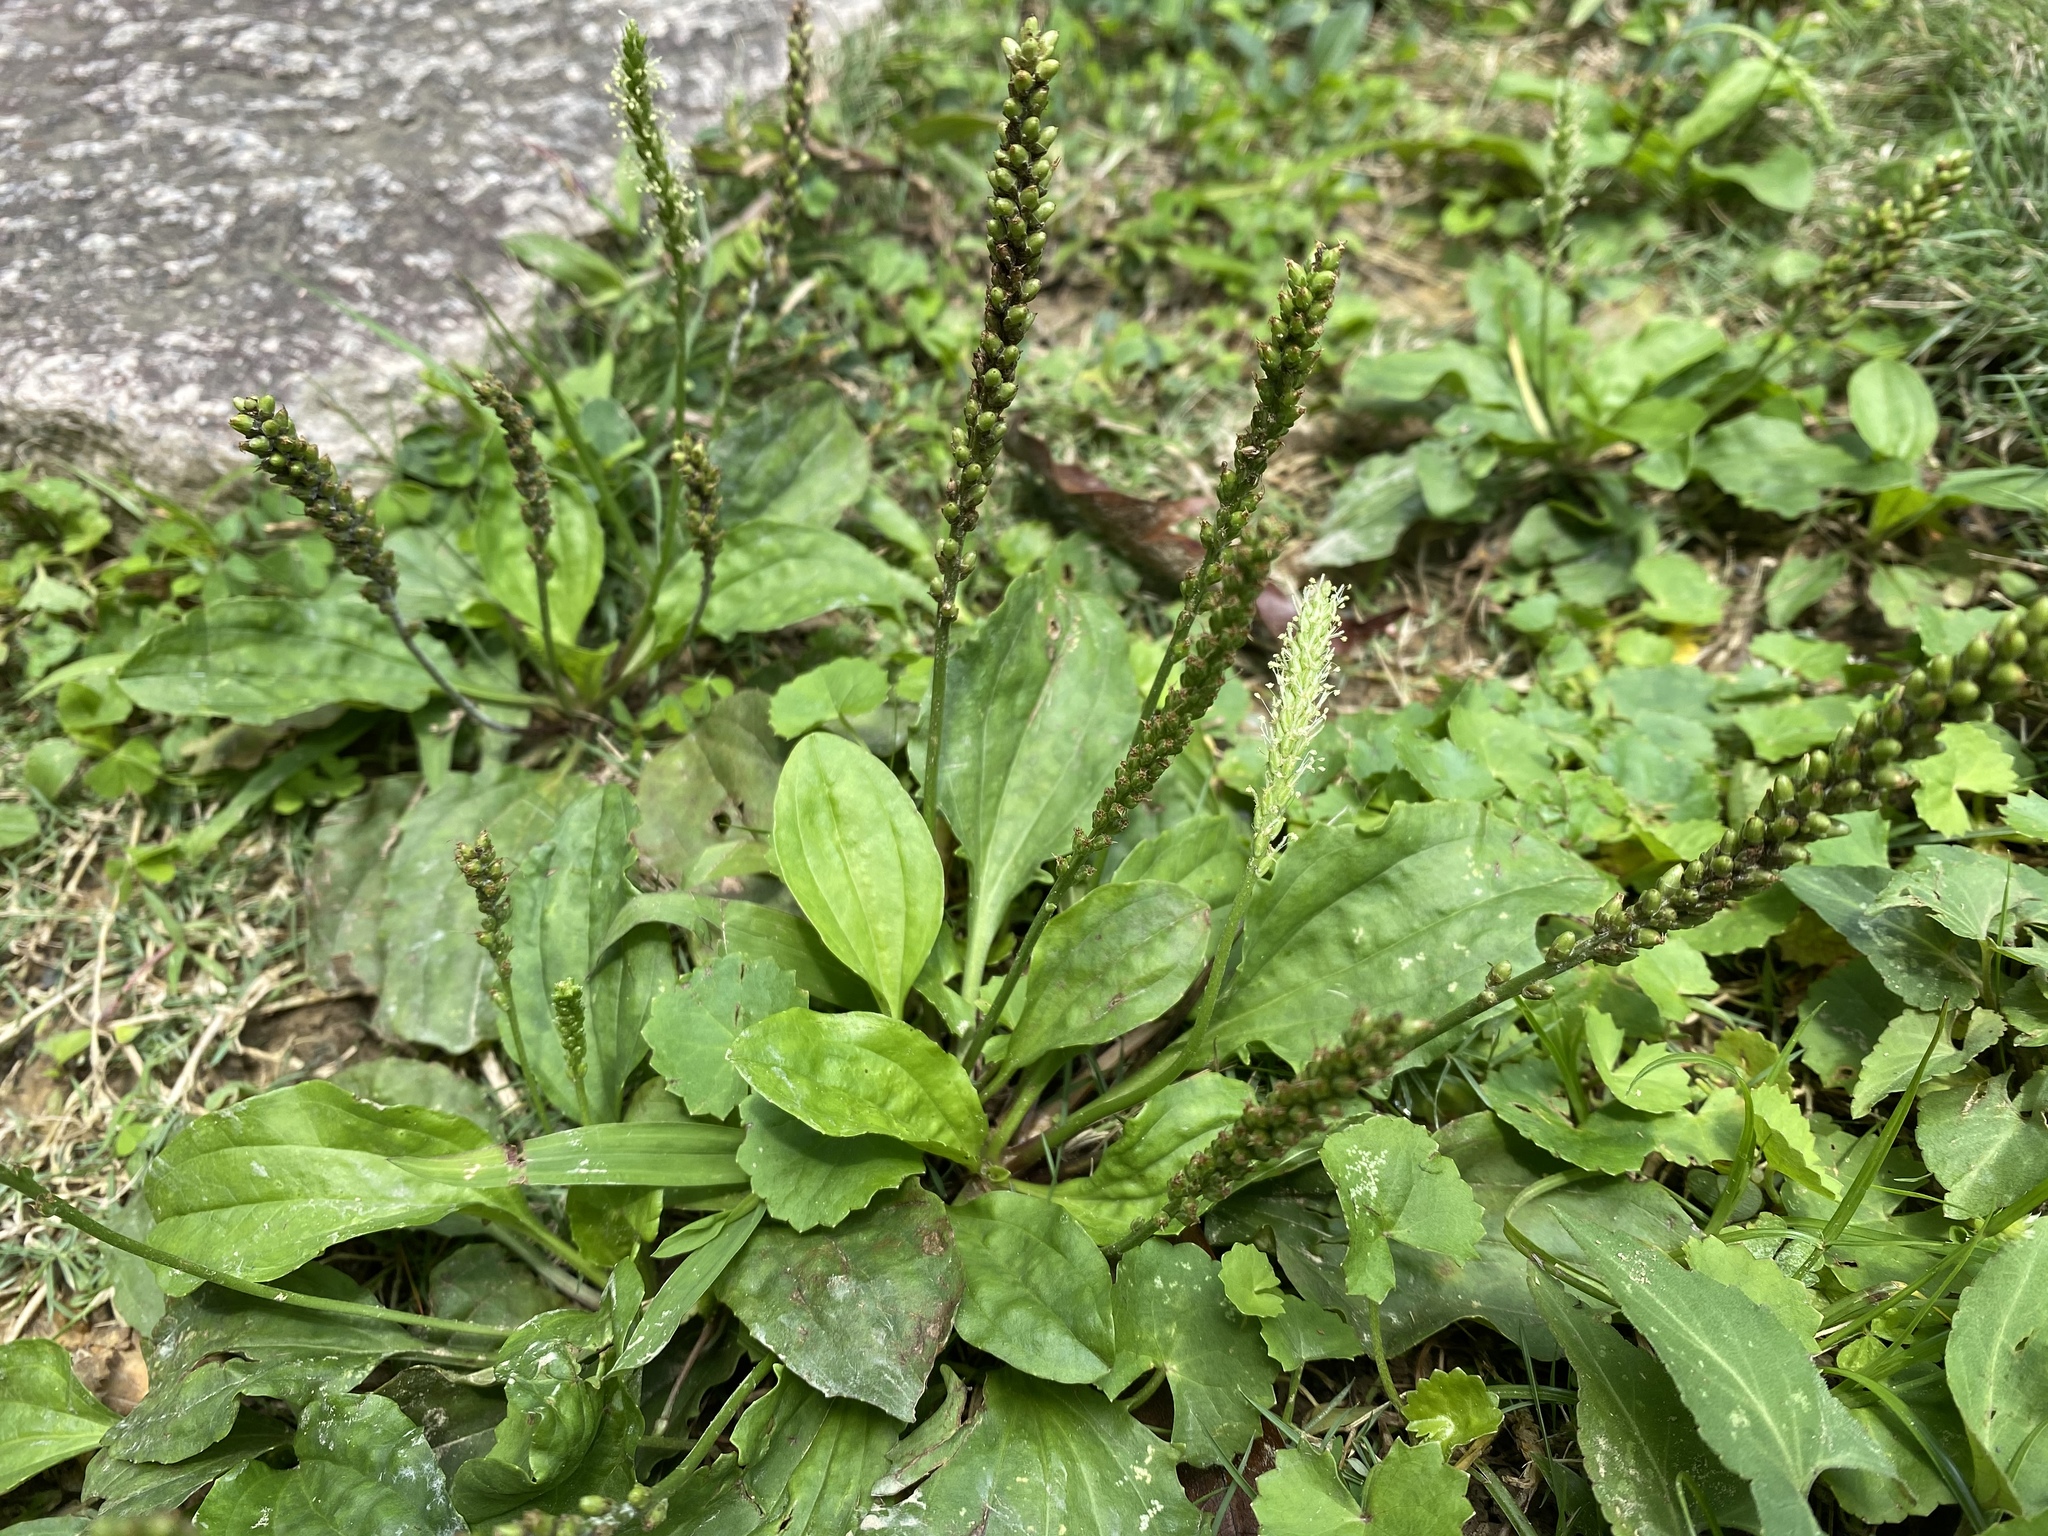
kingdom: Plantae
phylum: Tracheophyta
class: Magnoliopsida
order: Lamiales
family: Plantaginaceae
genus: Plantago
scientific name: Plantago asiatica
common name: Psyllium
